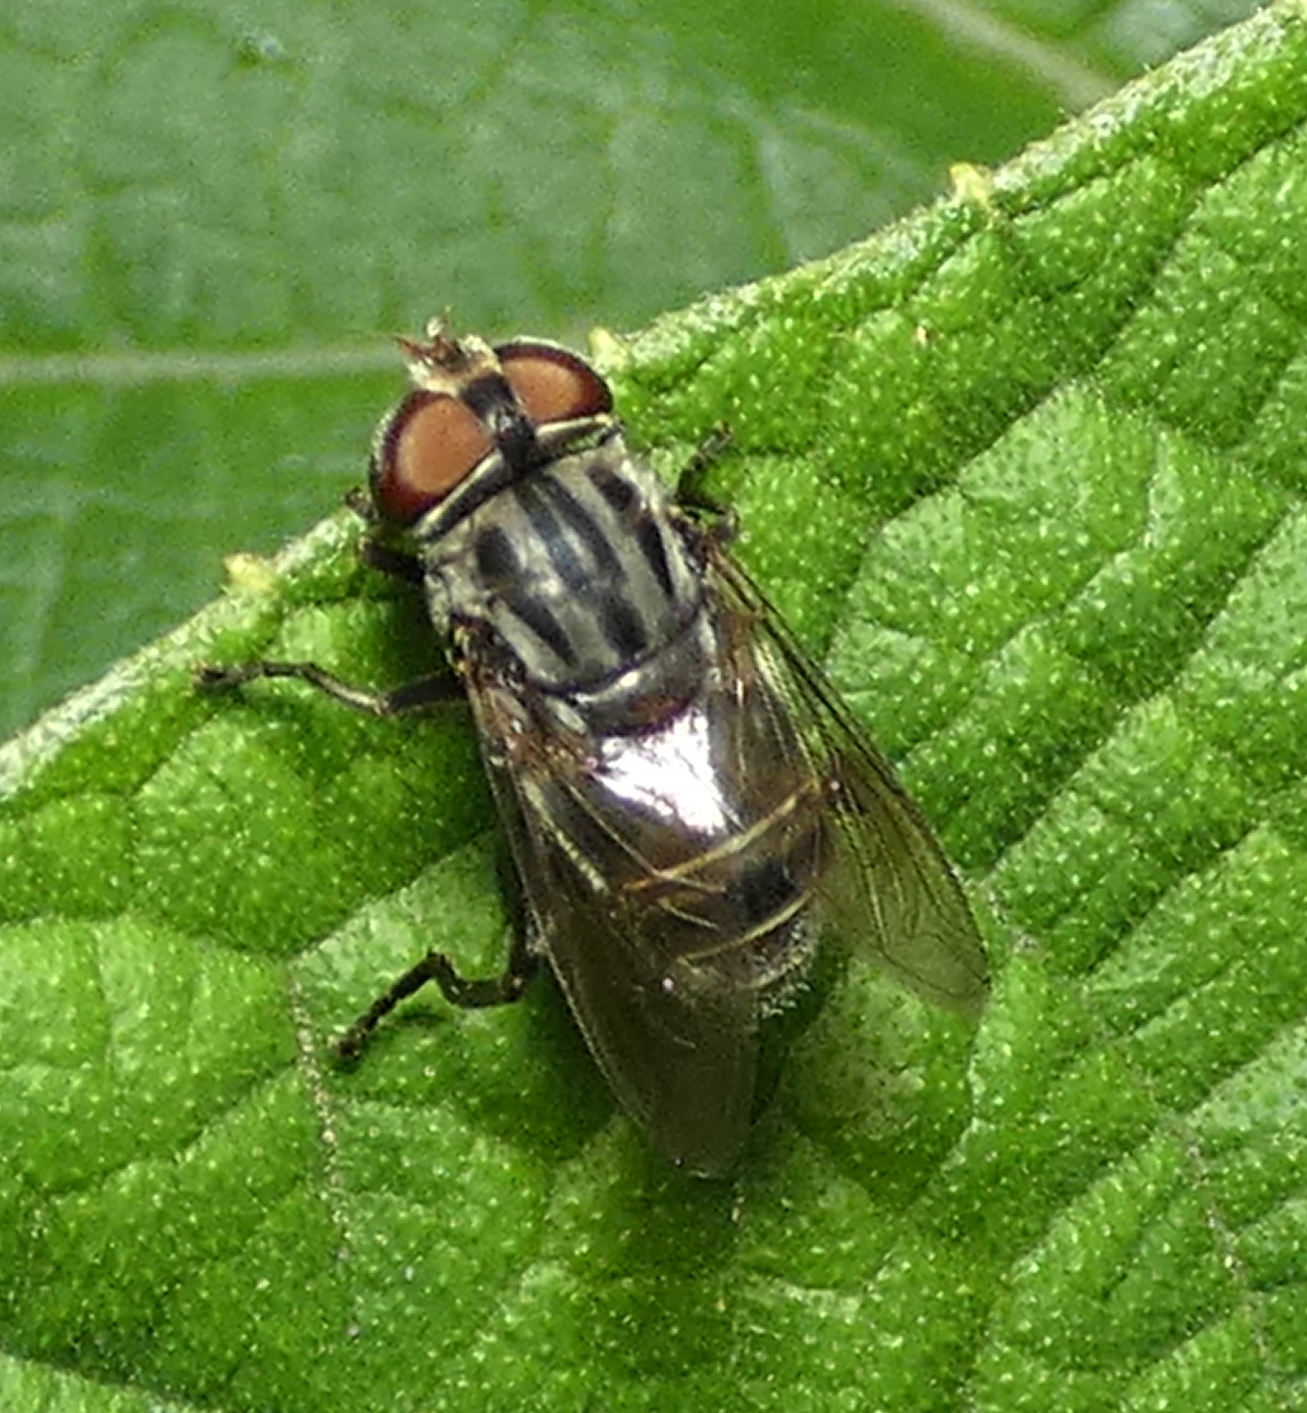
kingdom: Animalia
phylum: Arthropoda
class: Insecta
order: Diptera
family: Syrphidae
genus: Palpada
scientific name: Palpada furcata
